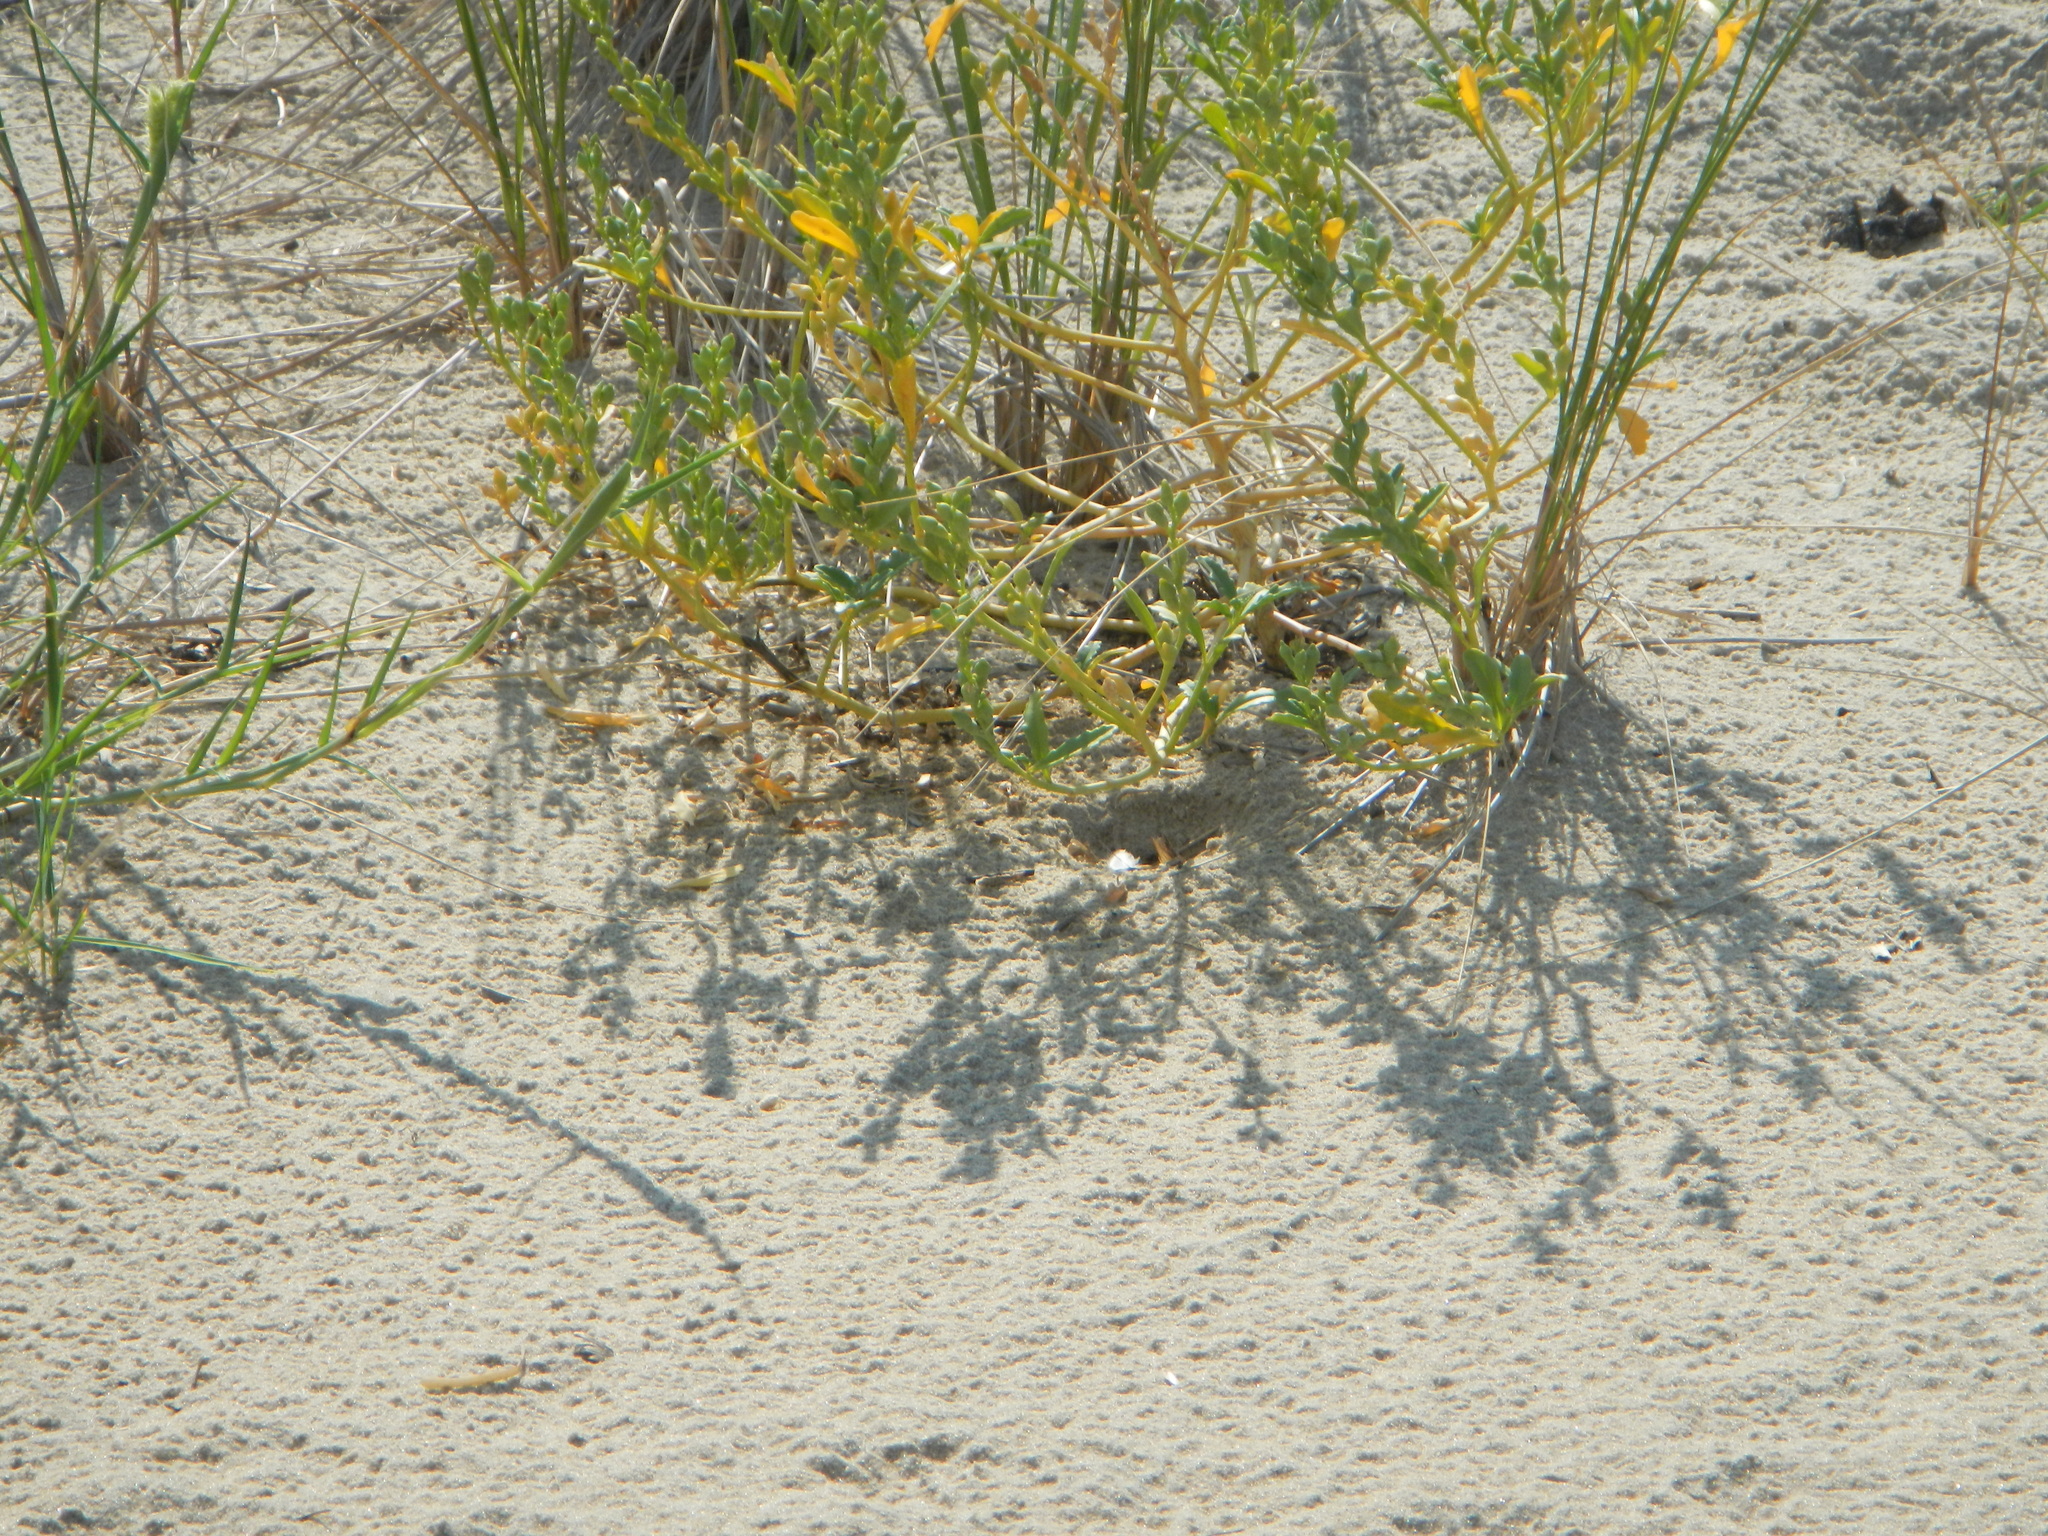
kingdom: Plantae
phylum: Tracheophyta
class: Magnoliopsida
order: Brassicales
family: Brassicaceae
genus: Cakile
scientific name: Cakile edentula
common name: American sea rocket
